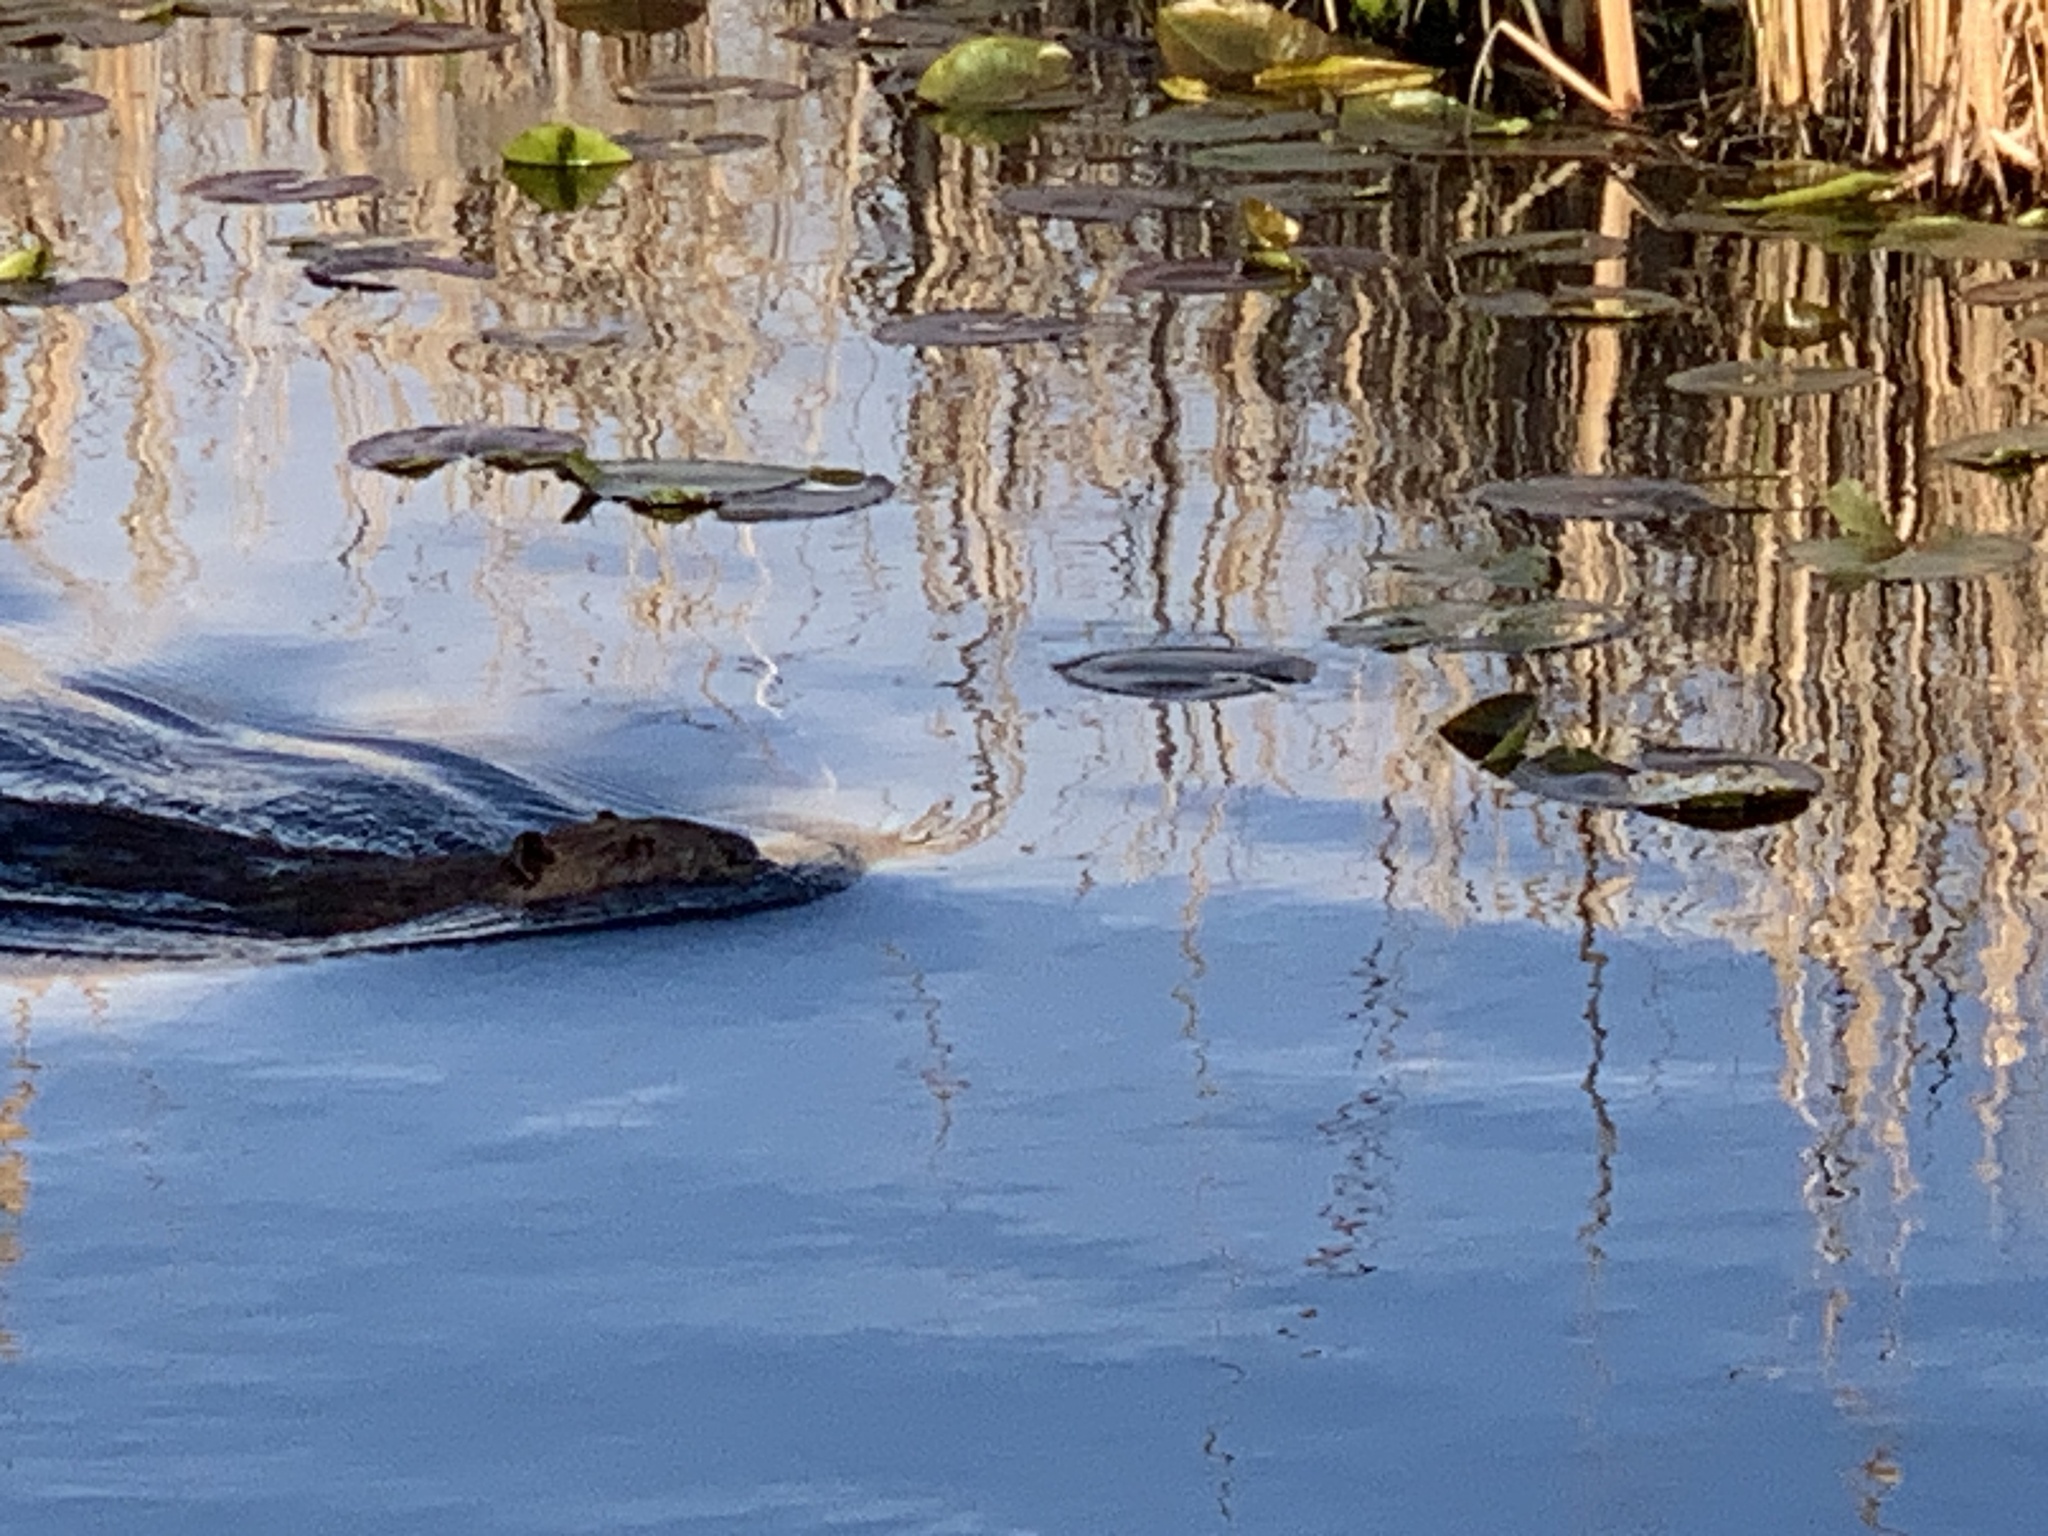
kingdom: Animalia
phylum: Chordata
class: Mammalia
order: Rodentia
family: Castoridae
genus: Castor
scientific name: Castor canadensis
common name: American beaver
